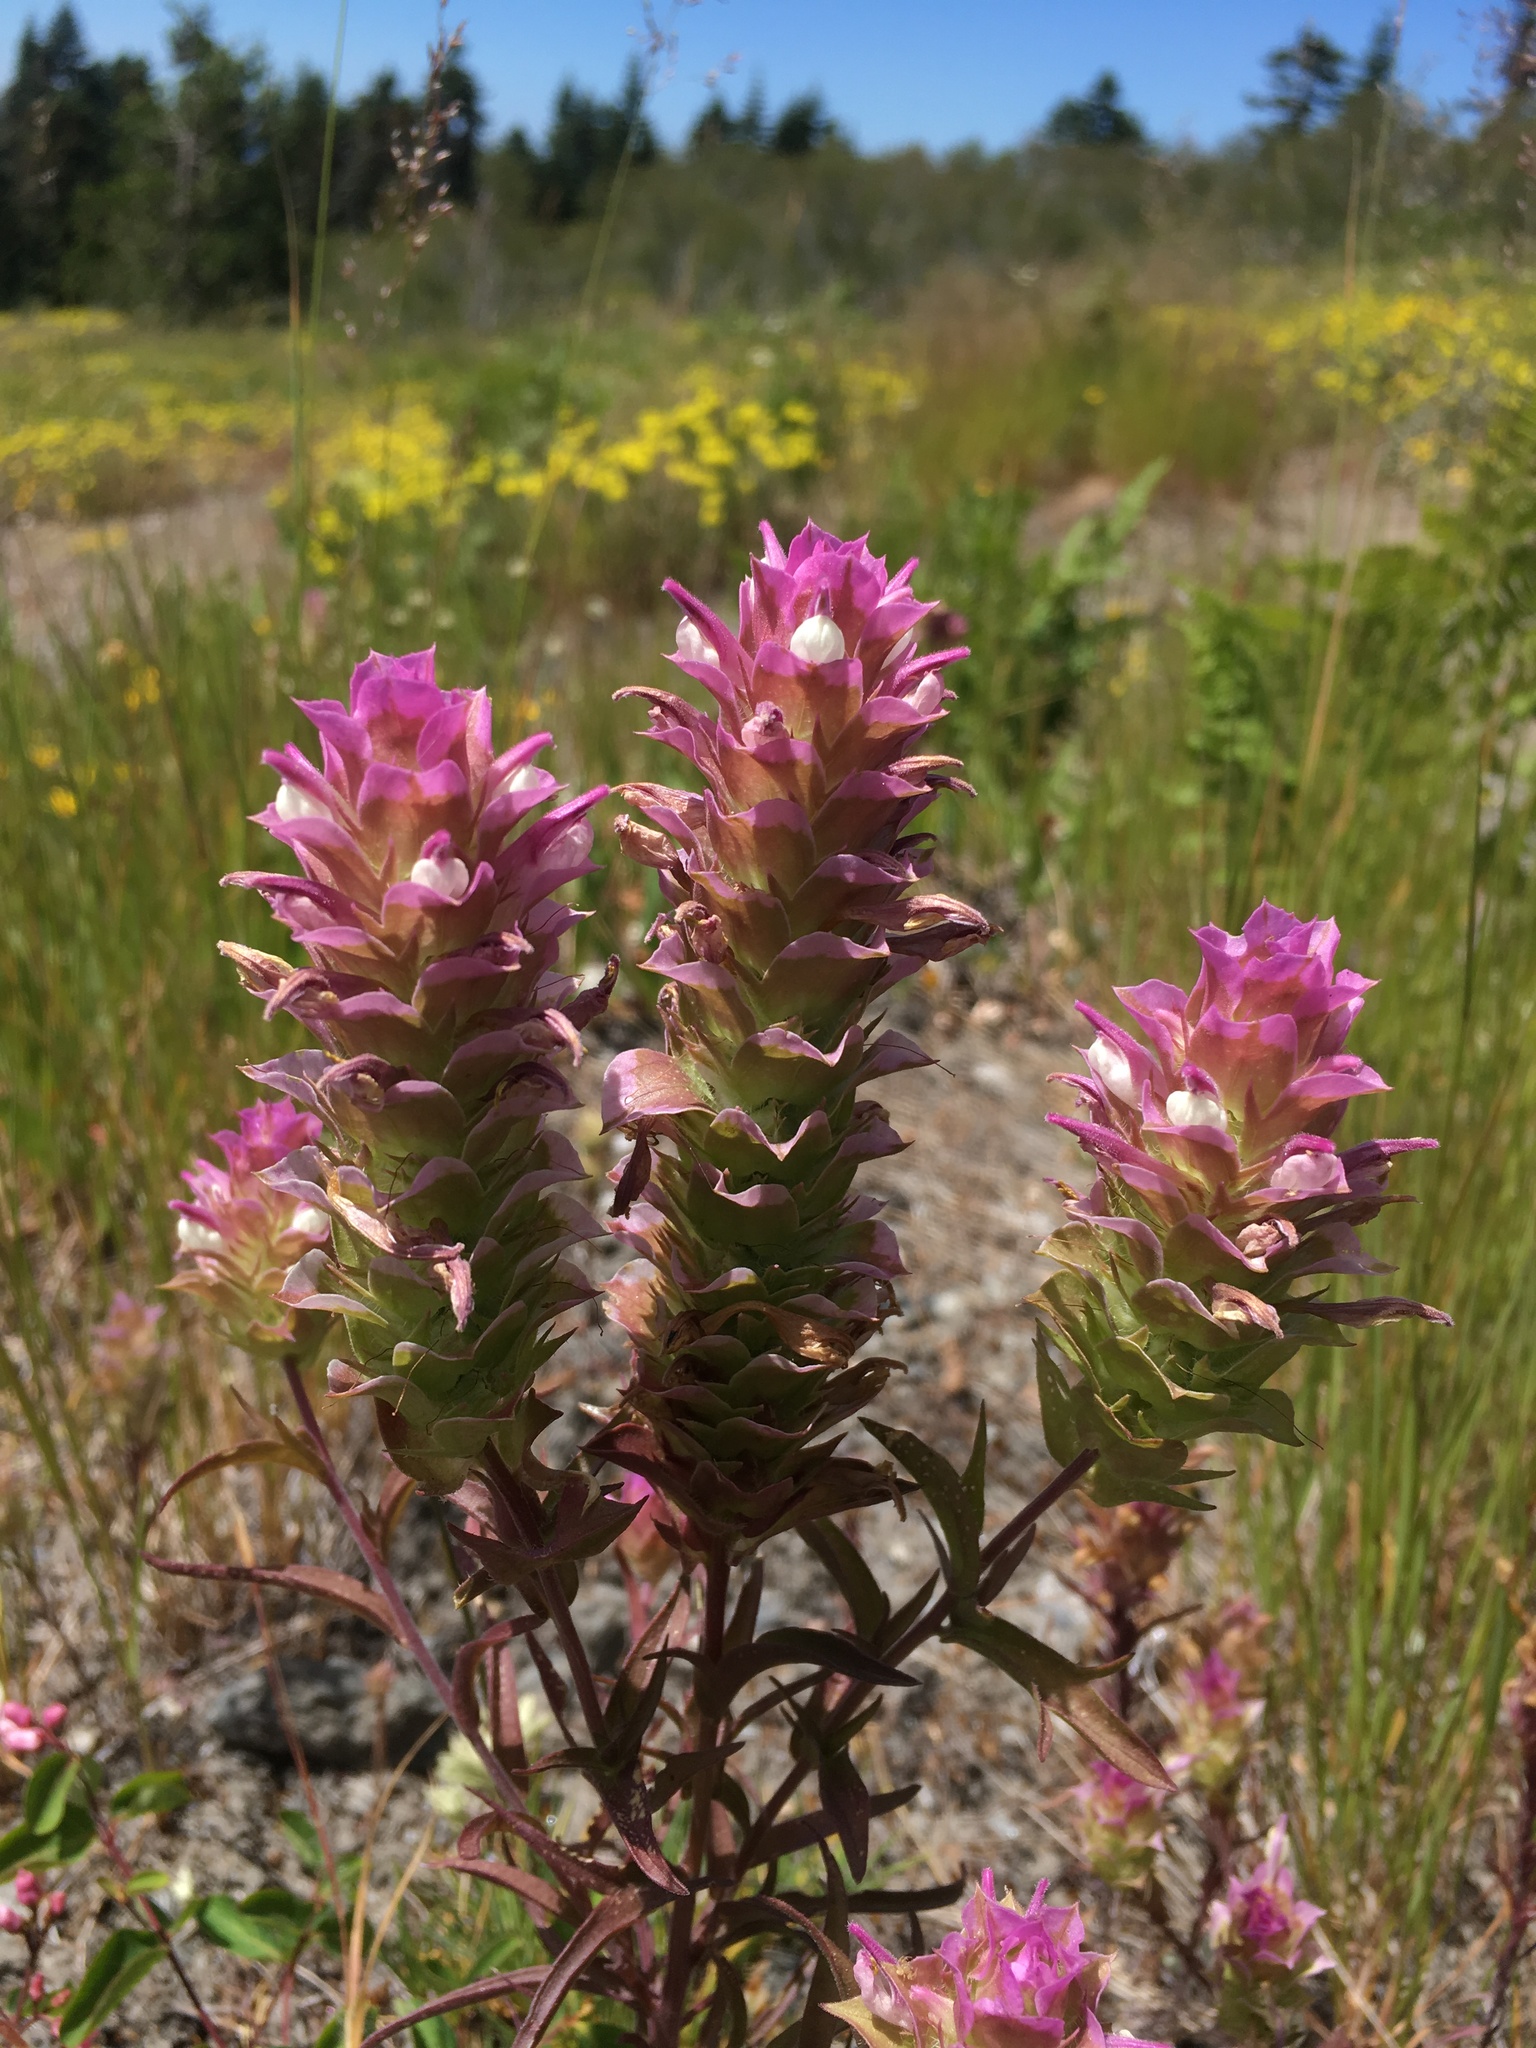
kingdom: Plantae
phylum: Tracheophyta
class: Magnoliopsida
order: Lamiales
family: Orobanchaceae
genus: Orthocarpus
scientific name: Orthocarpus cuspidatus
